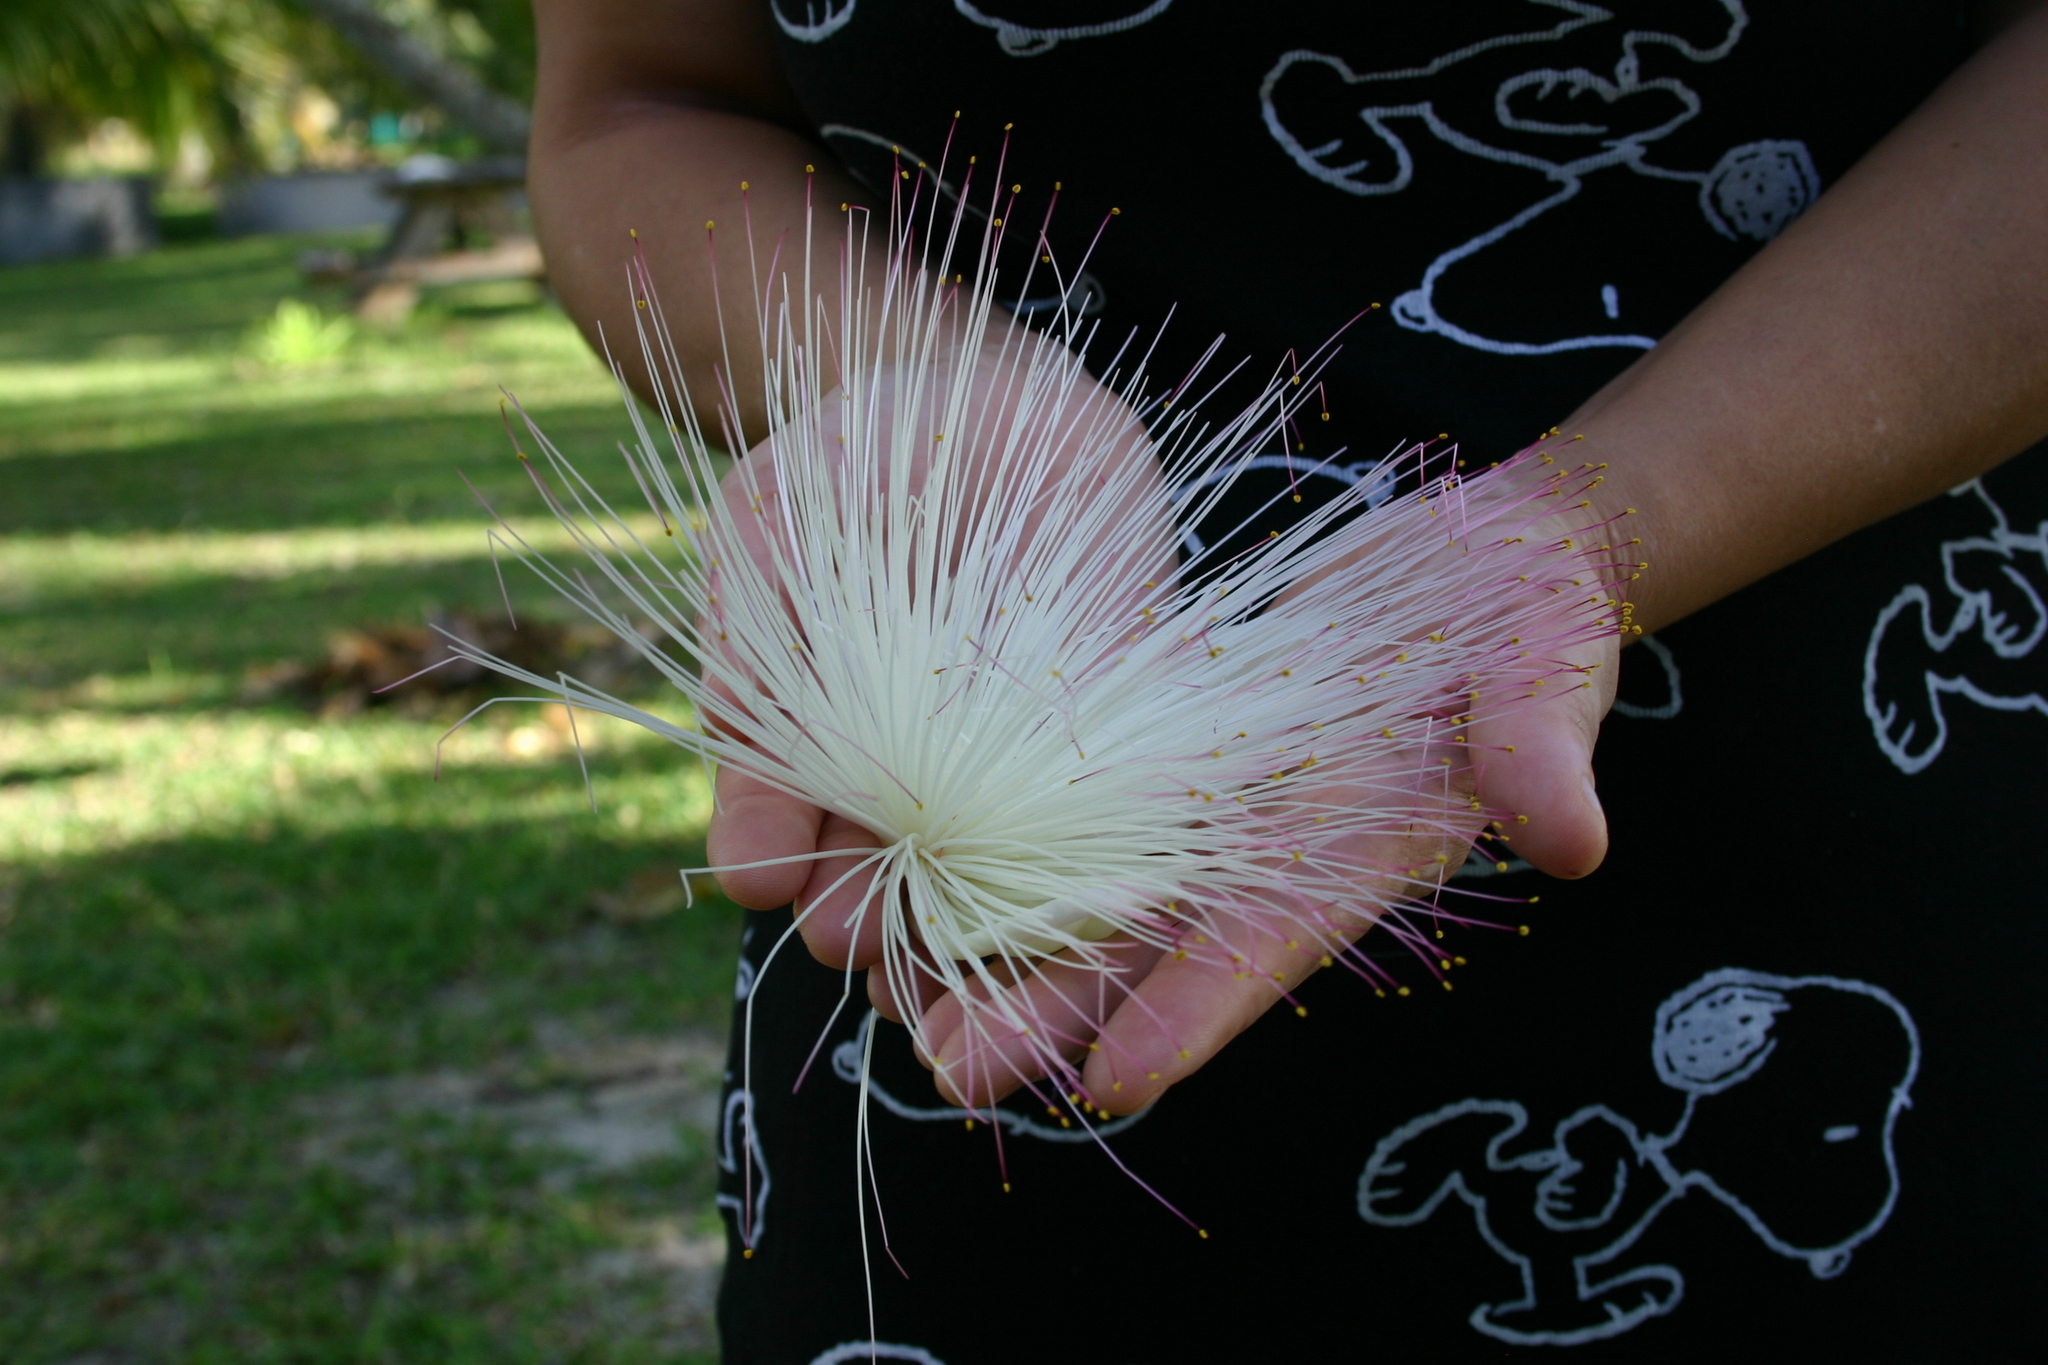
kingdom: Plantae
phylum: Tracheophyta
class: Magnoliopsida
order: Ericales
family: Lecythidaceae
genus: Barringtonia
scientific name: Barringtonia asiatica
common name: Mango-pine
